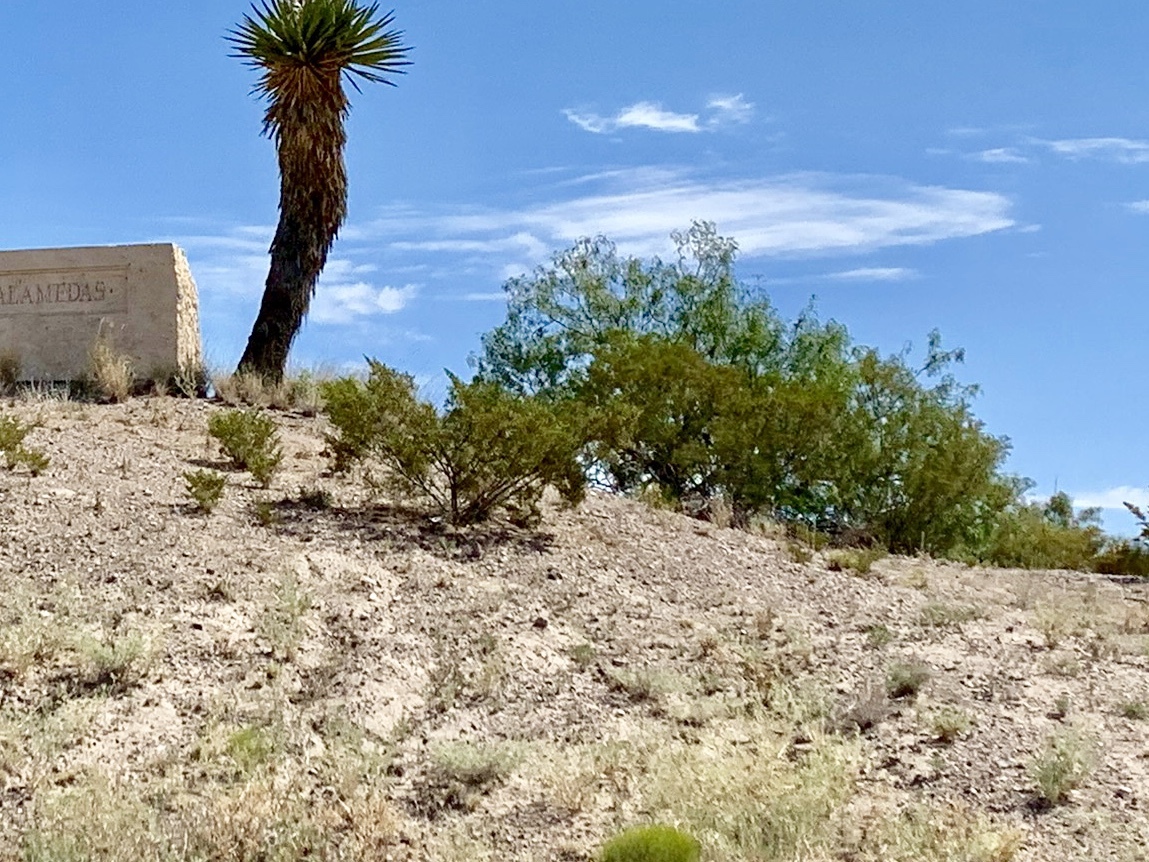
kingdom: Plantae
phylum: Tracheophyta
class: Magnoliopsida
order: Zygophyllales
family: Zygophyllaceae
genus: Larrea
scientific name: Larrea tridentata
